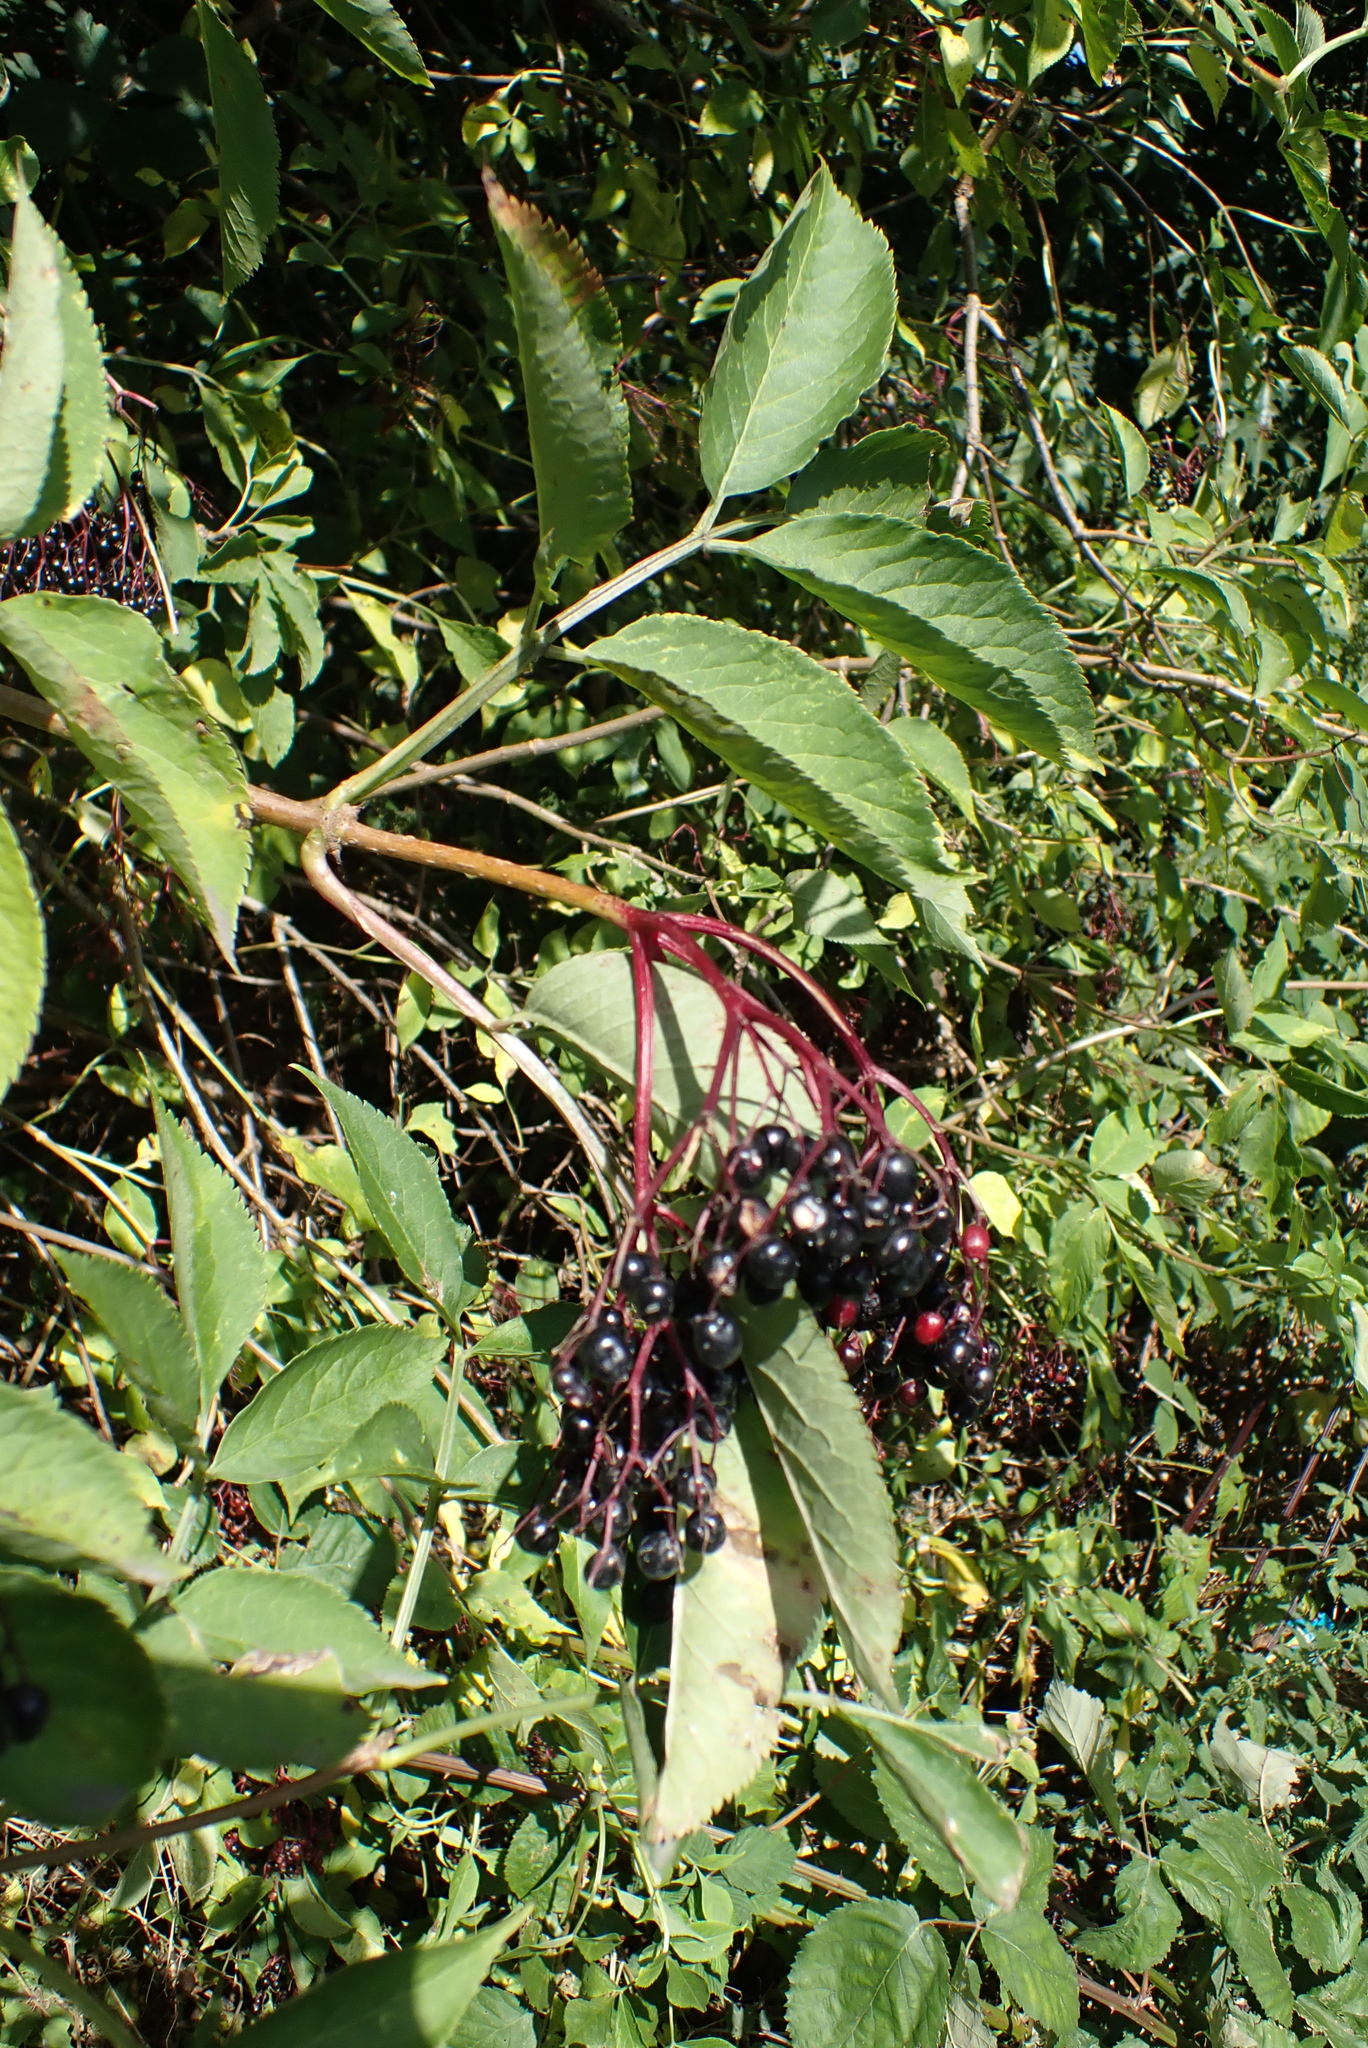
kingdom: Plantae
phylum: Tracheophyta
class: Magnoliopsida
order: Dipsacales
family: Viburnaceae
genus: Sambucus
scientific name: Sambucus nigra
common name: Elder
